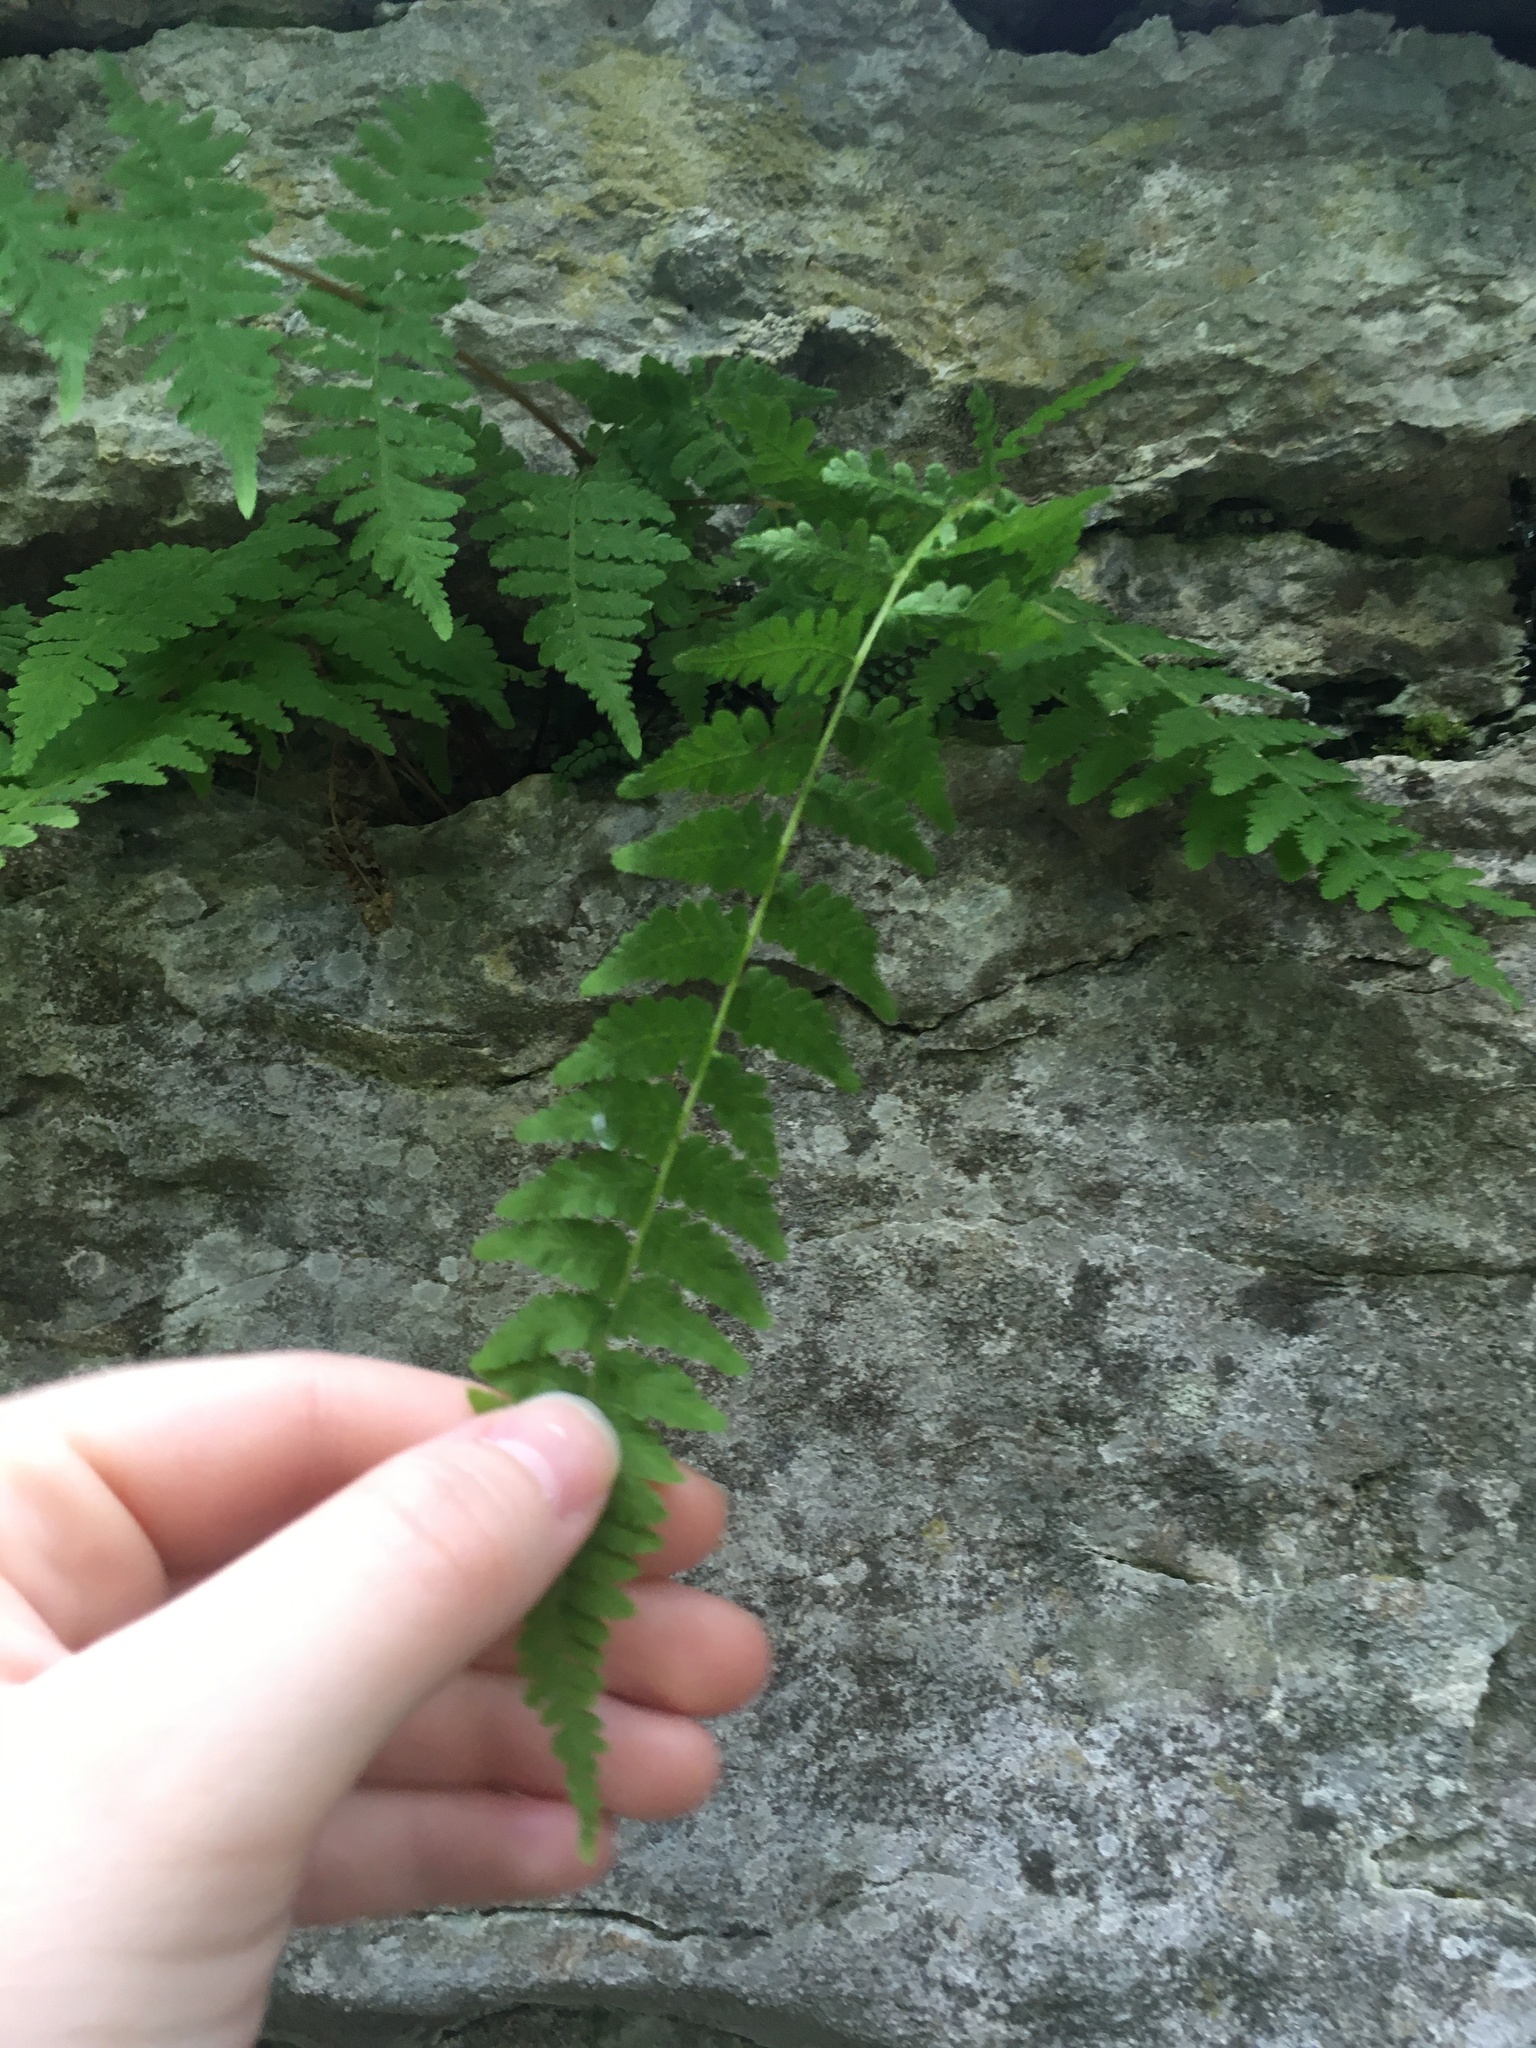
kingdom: Plantae
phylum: Tracheophyta
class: Polypodiopsida
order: Polypodiales
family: Cystopteridaceae
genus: Cystopteris
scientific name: Cystopteris bulbifera
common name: Bulblet bladder fern
